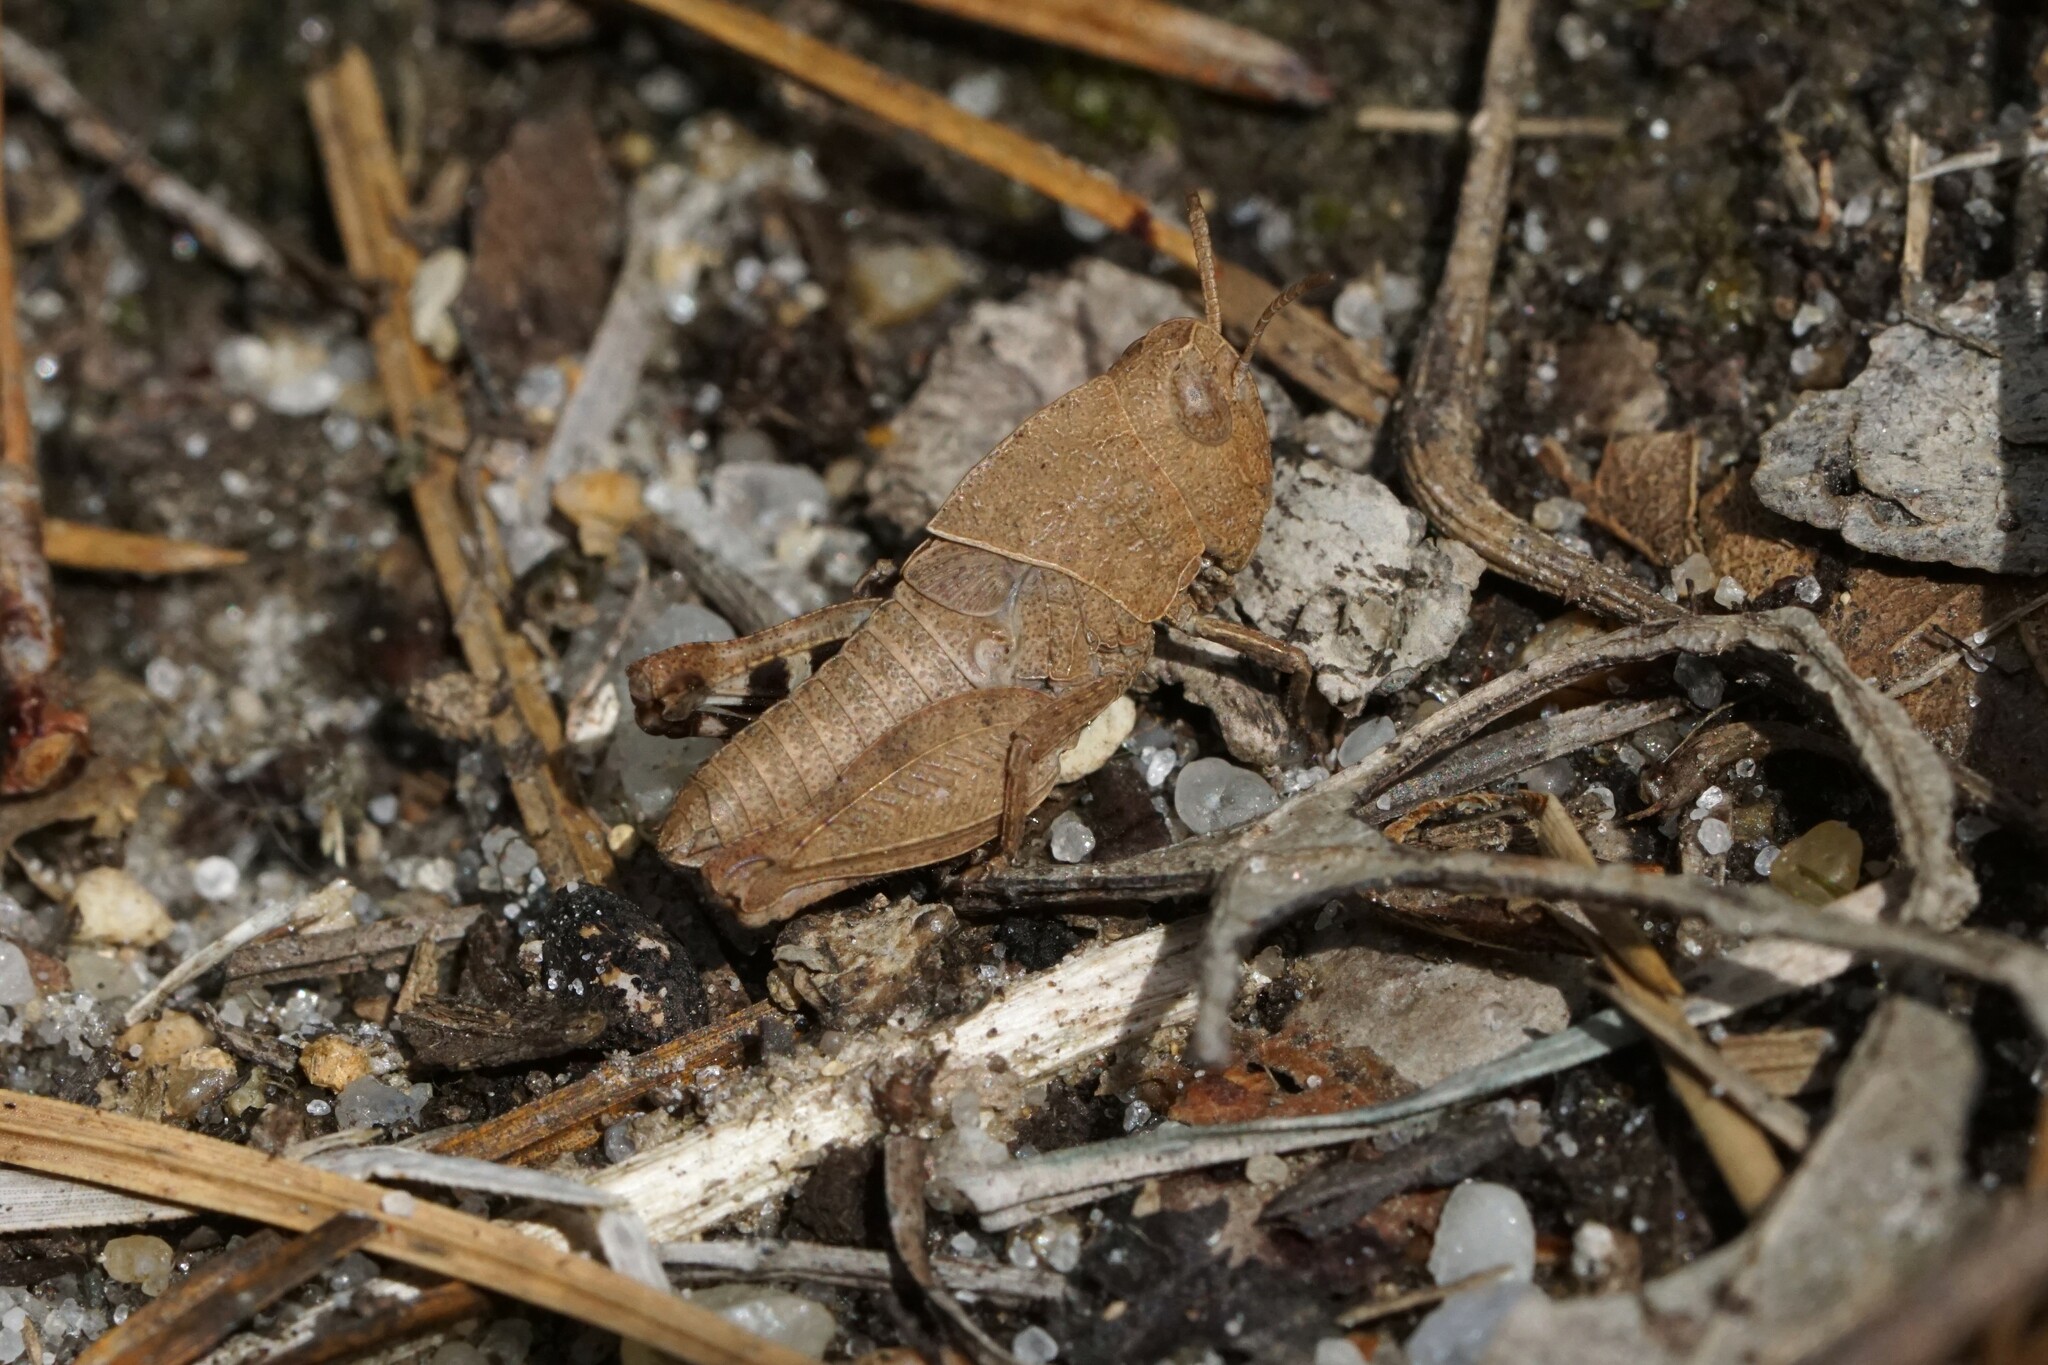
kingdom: Animalia
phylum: Arthropoda
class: Insecta
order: Orthoptera
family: Acrididae
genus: Arphia
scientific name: Arphia sulphurea
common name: Spring yellow-winged locust
